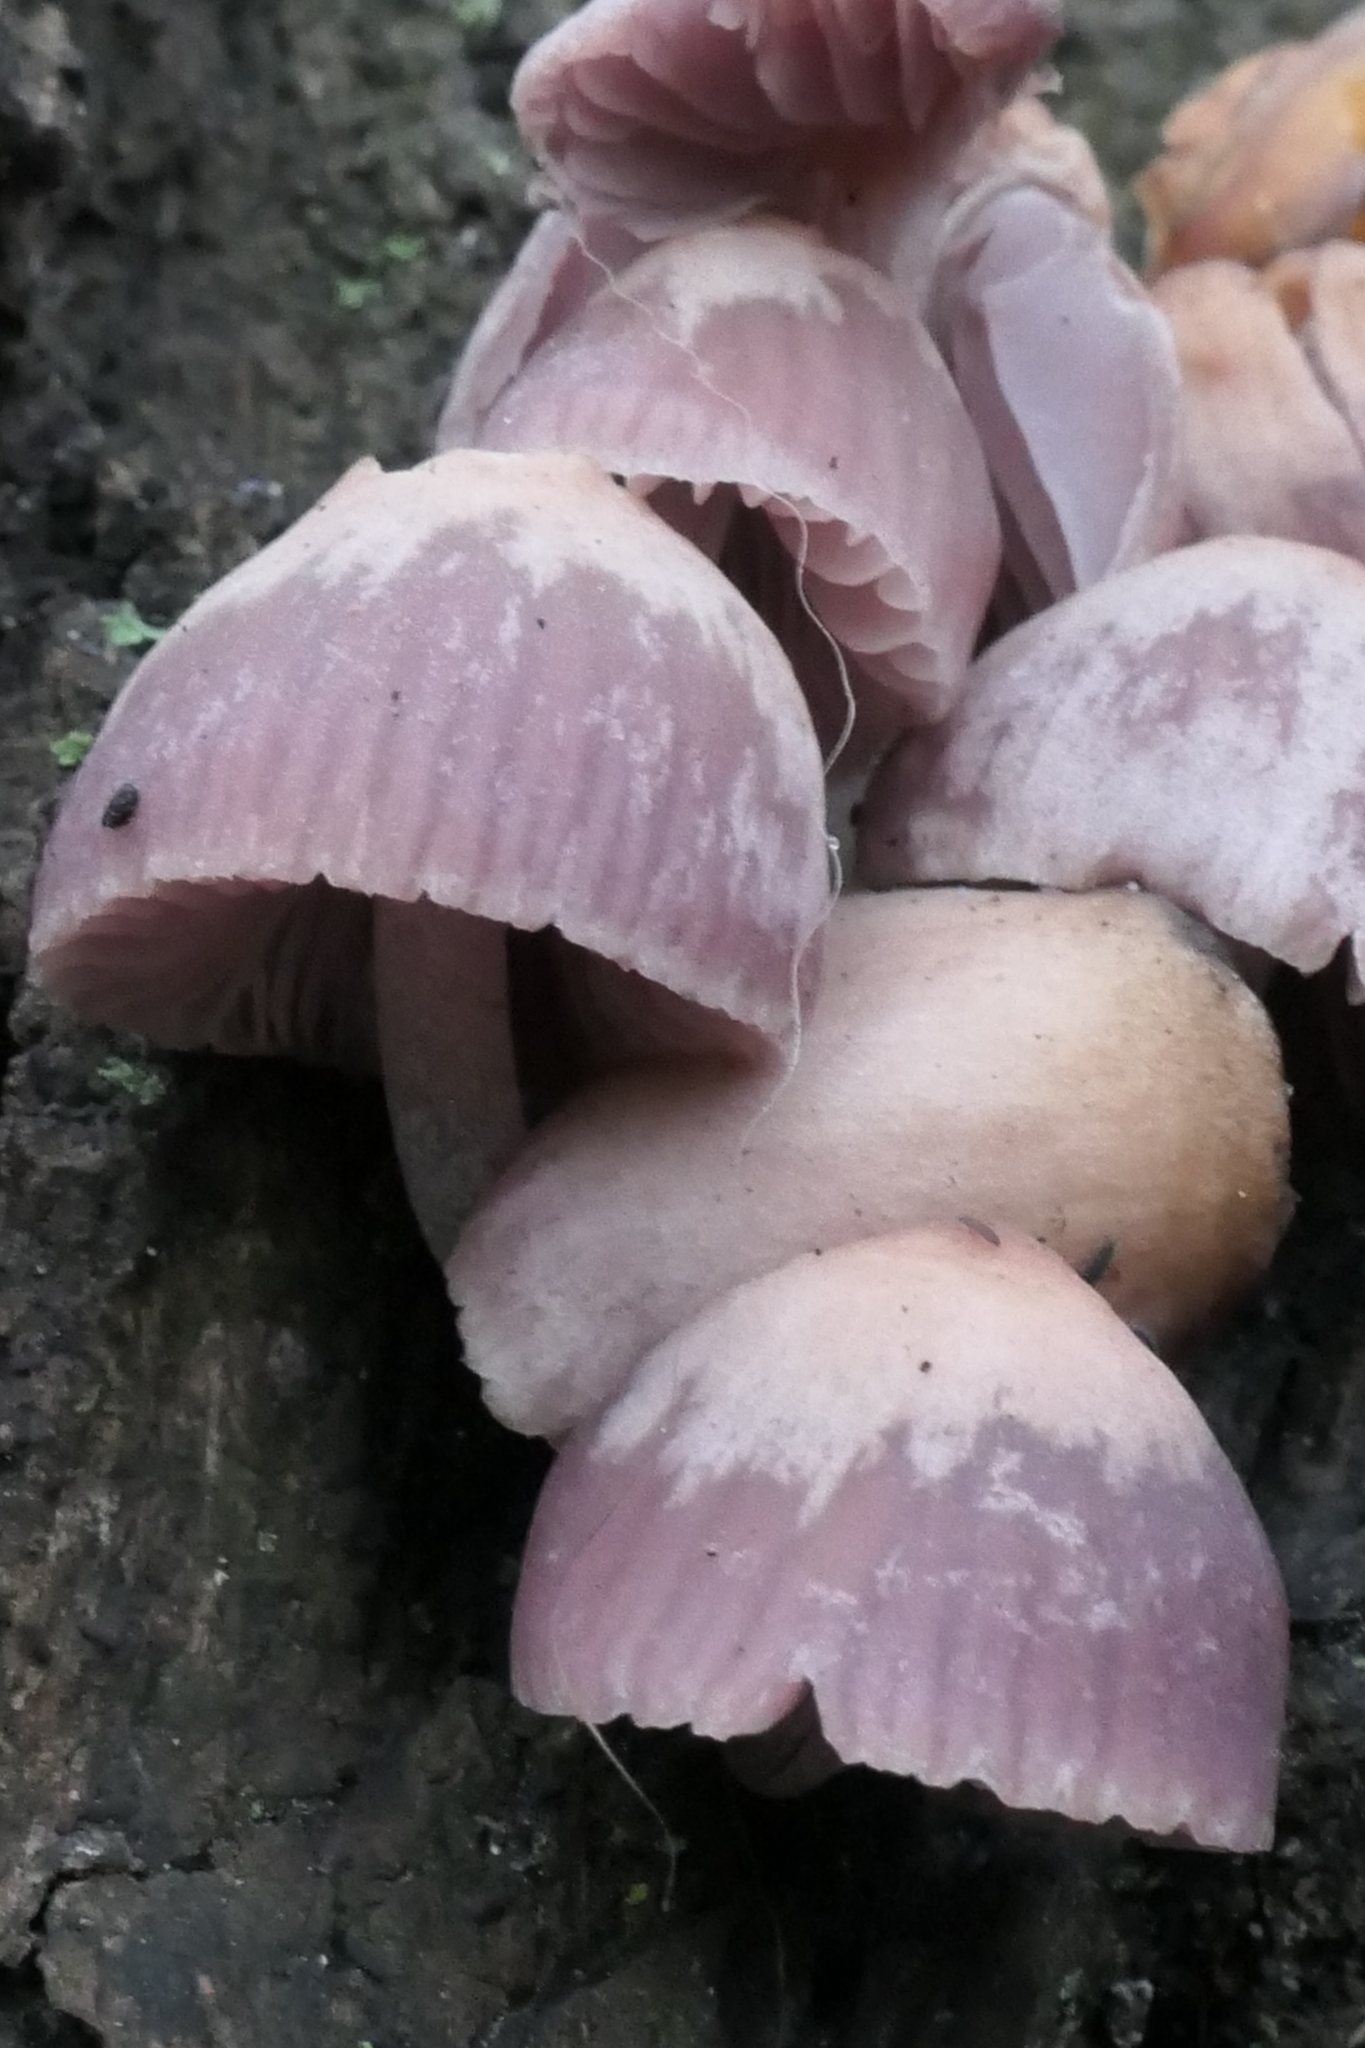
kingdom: Fungi
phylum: Basidiomycota
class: Agaricomycetes
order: Agaricales
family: Mycenaceae
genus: Mycena
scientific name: Mycena clarkeana
